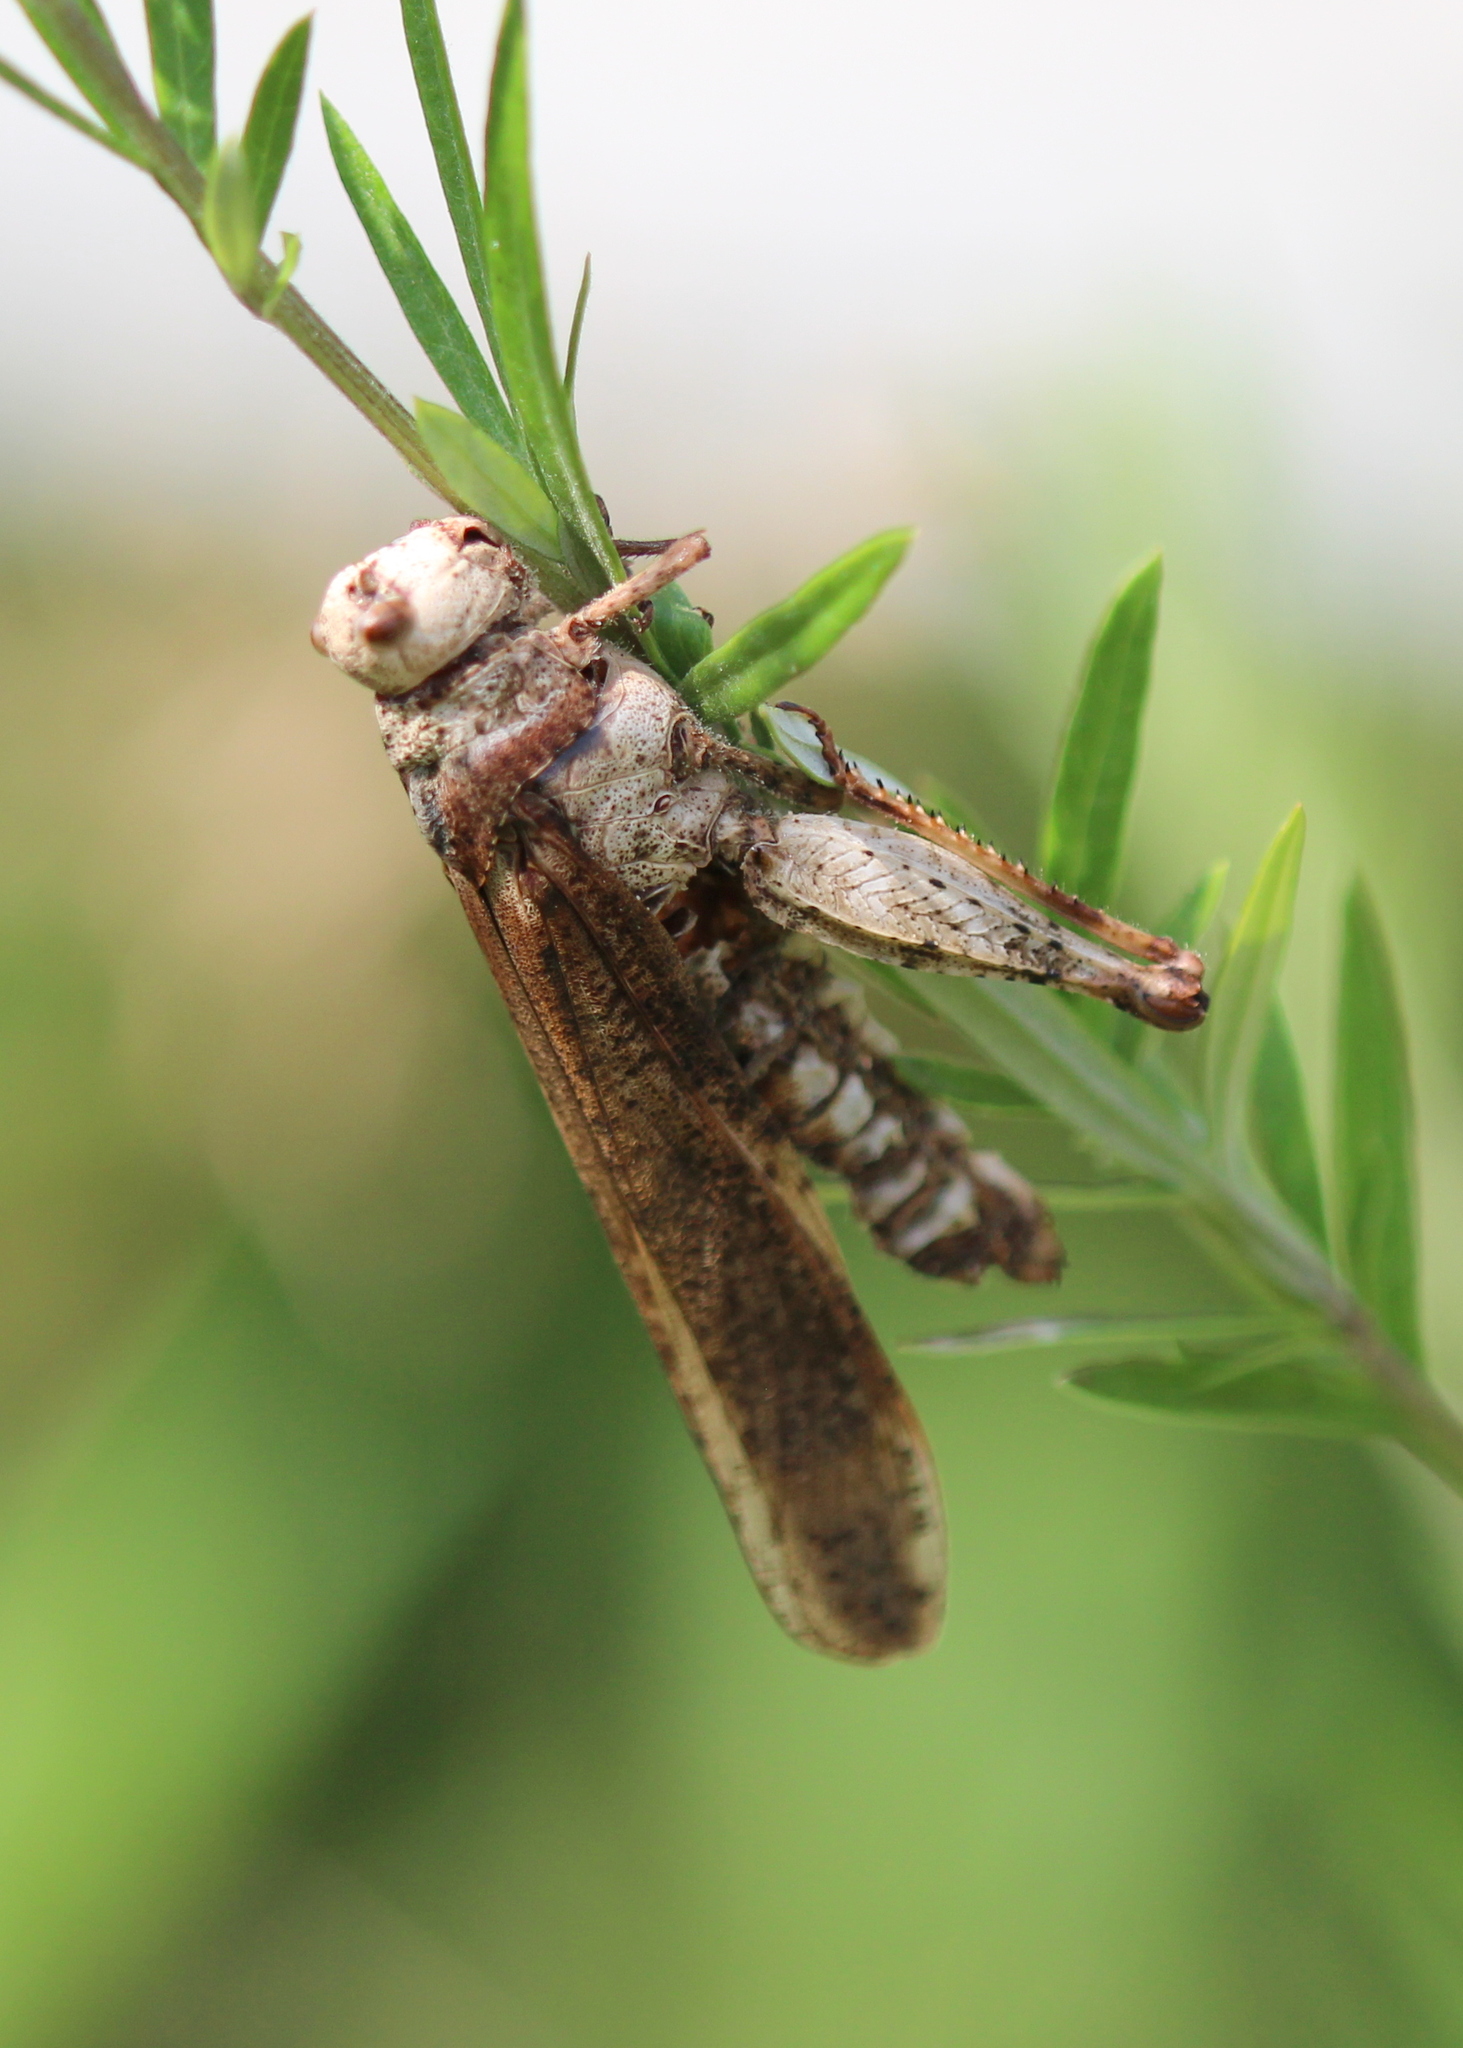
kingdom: Animalia
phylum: Arthropoda
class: Insecta
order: Orthoptera
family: Acrididae
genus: Dissosteira
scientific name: Dissosteira carolina
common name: Carolina grasshopper
